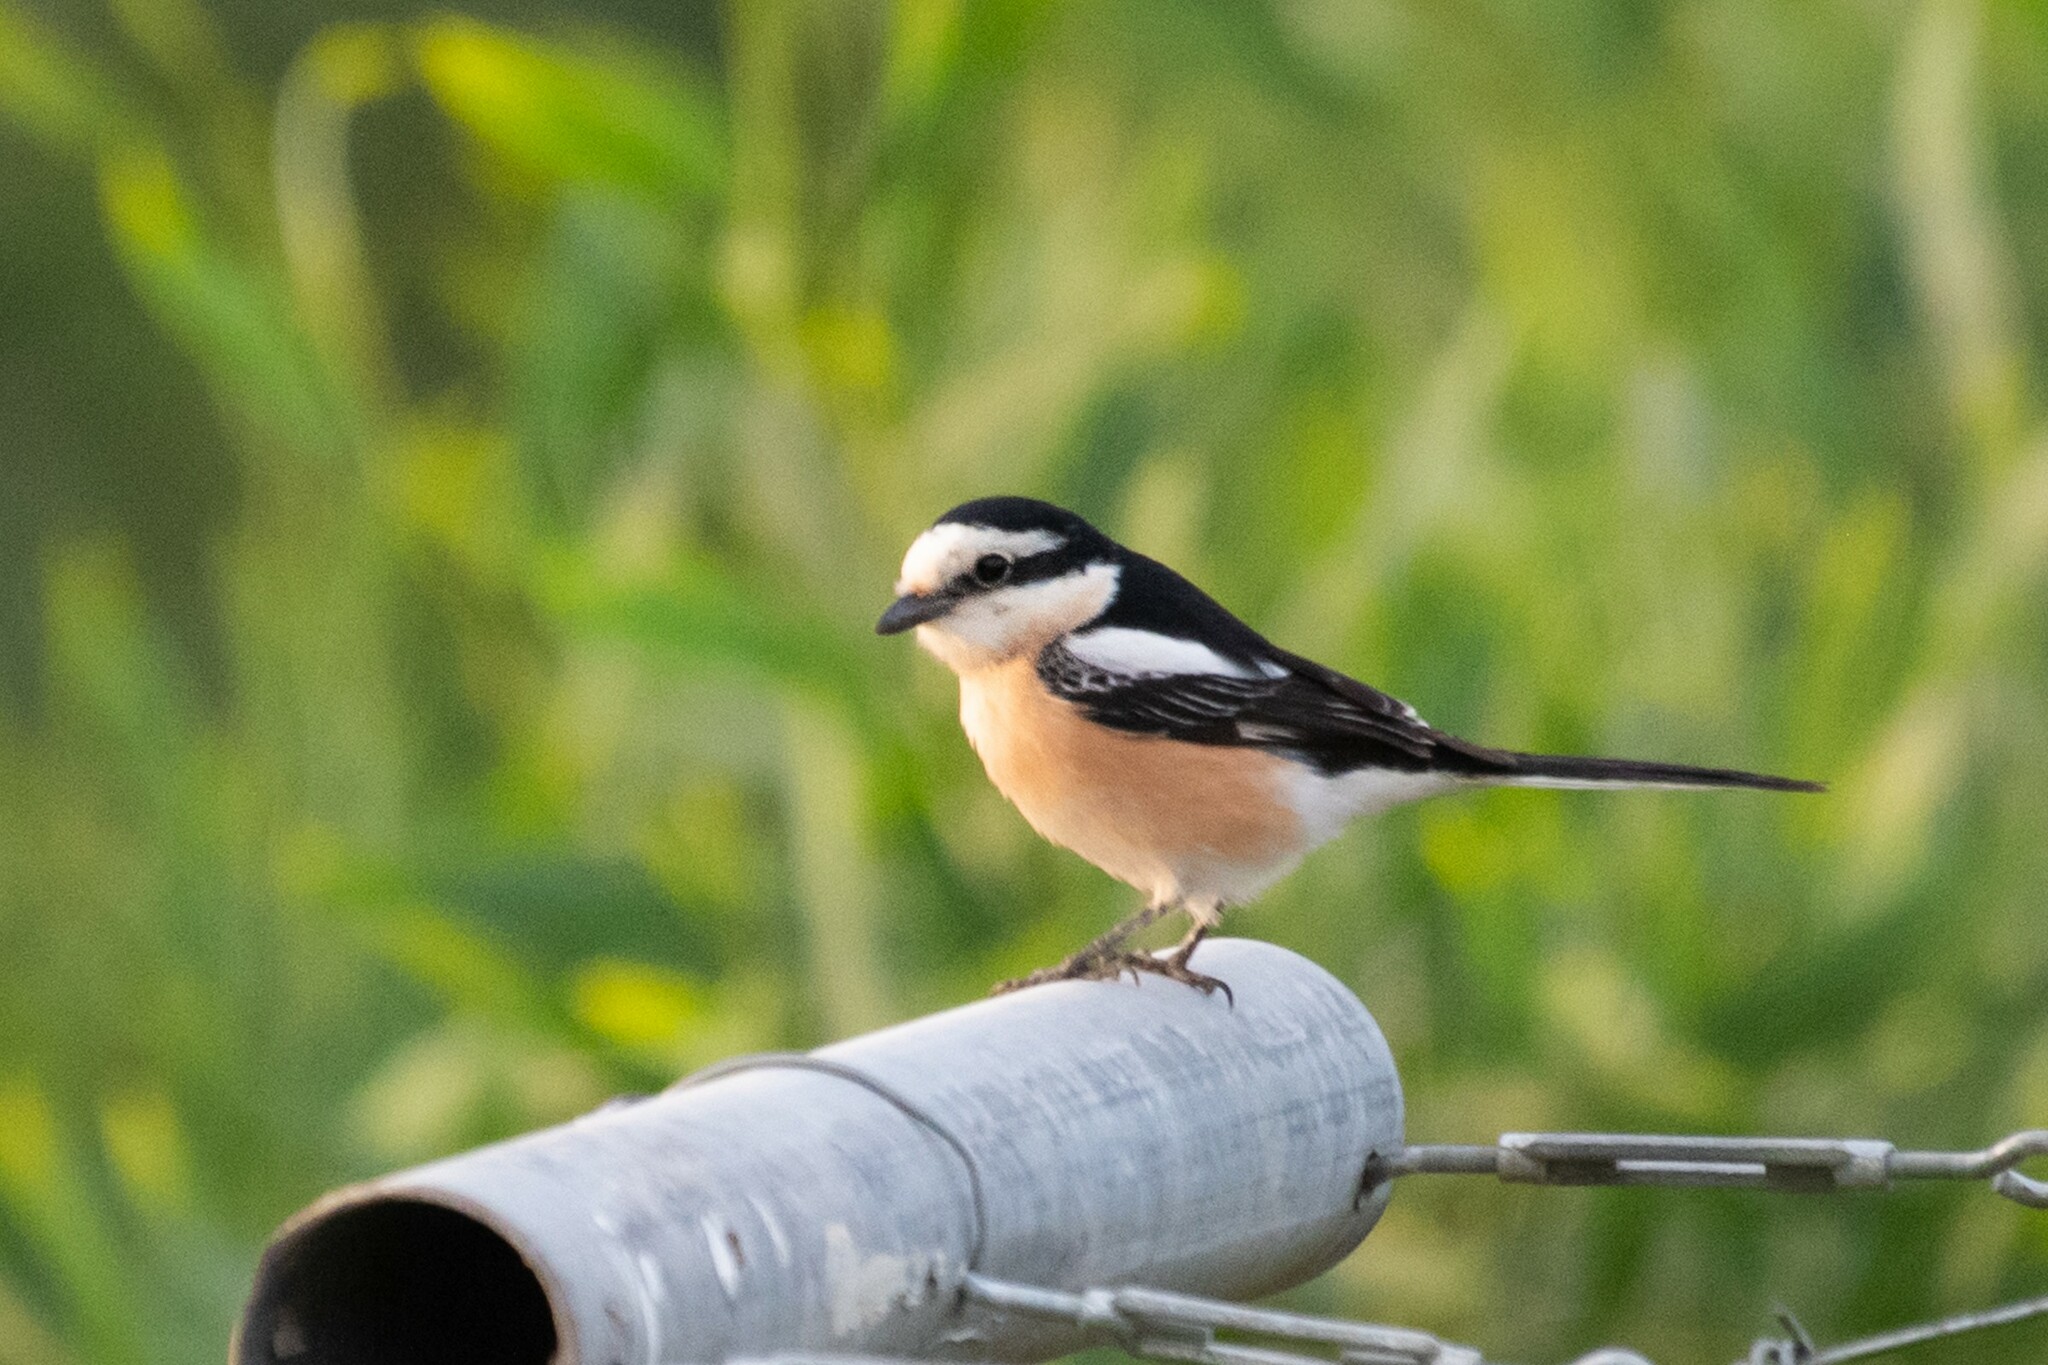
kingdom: Animalia
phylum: Chordata
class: Aves
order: Passeriformes
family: Laniidae
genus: Lanius
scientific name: Lanius nubicus
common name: Masked shrike
